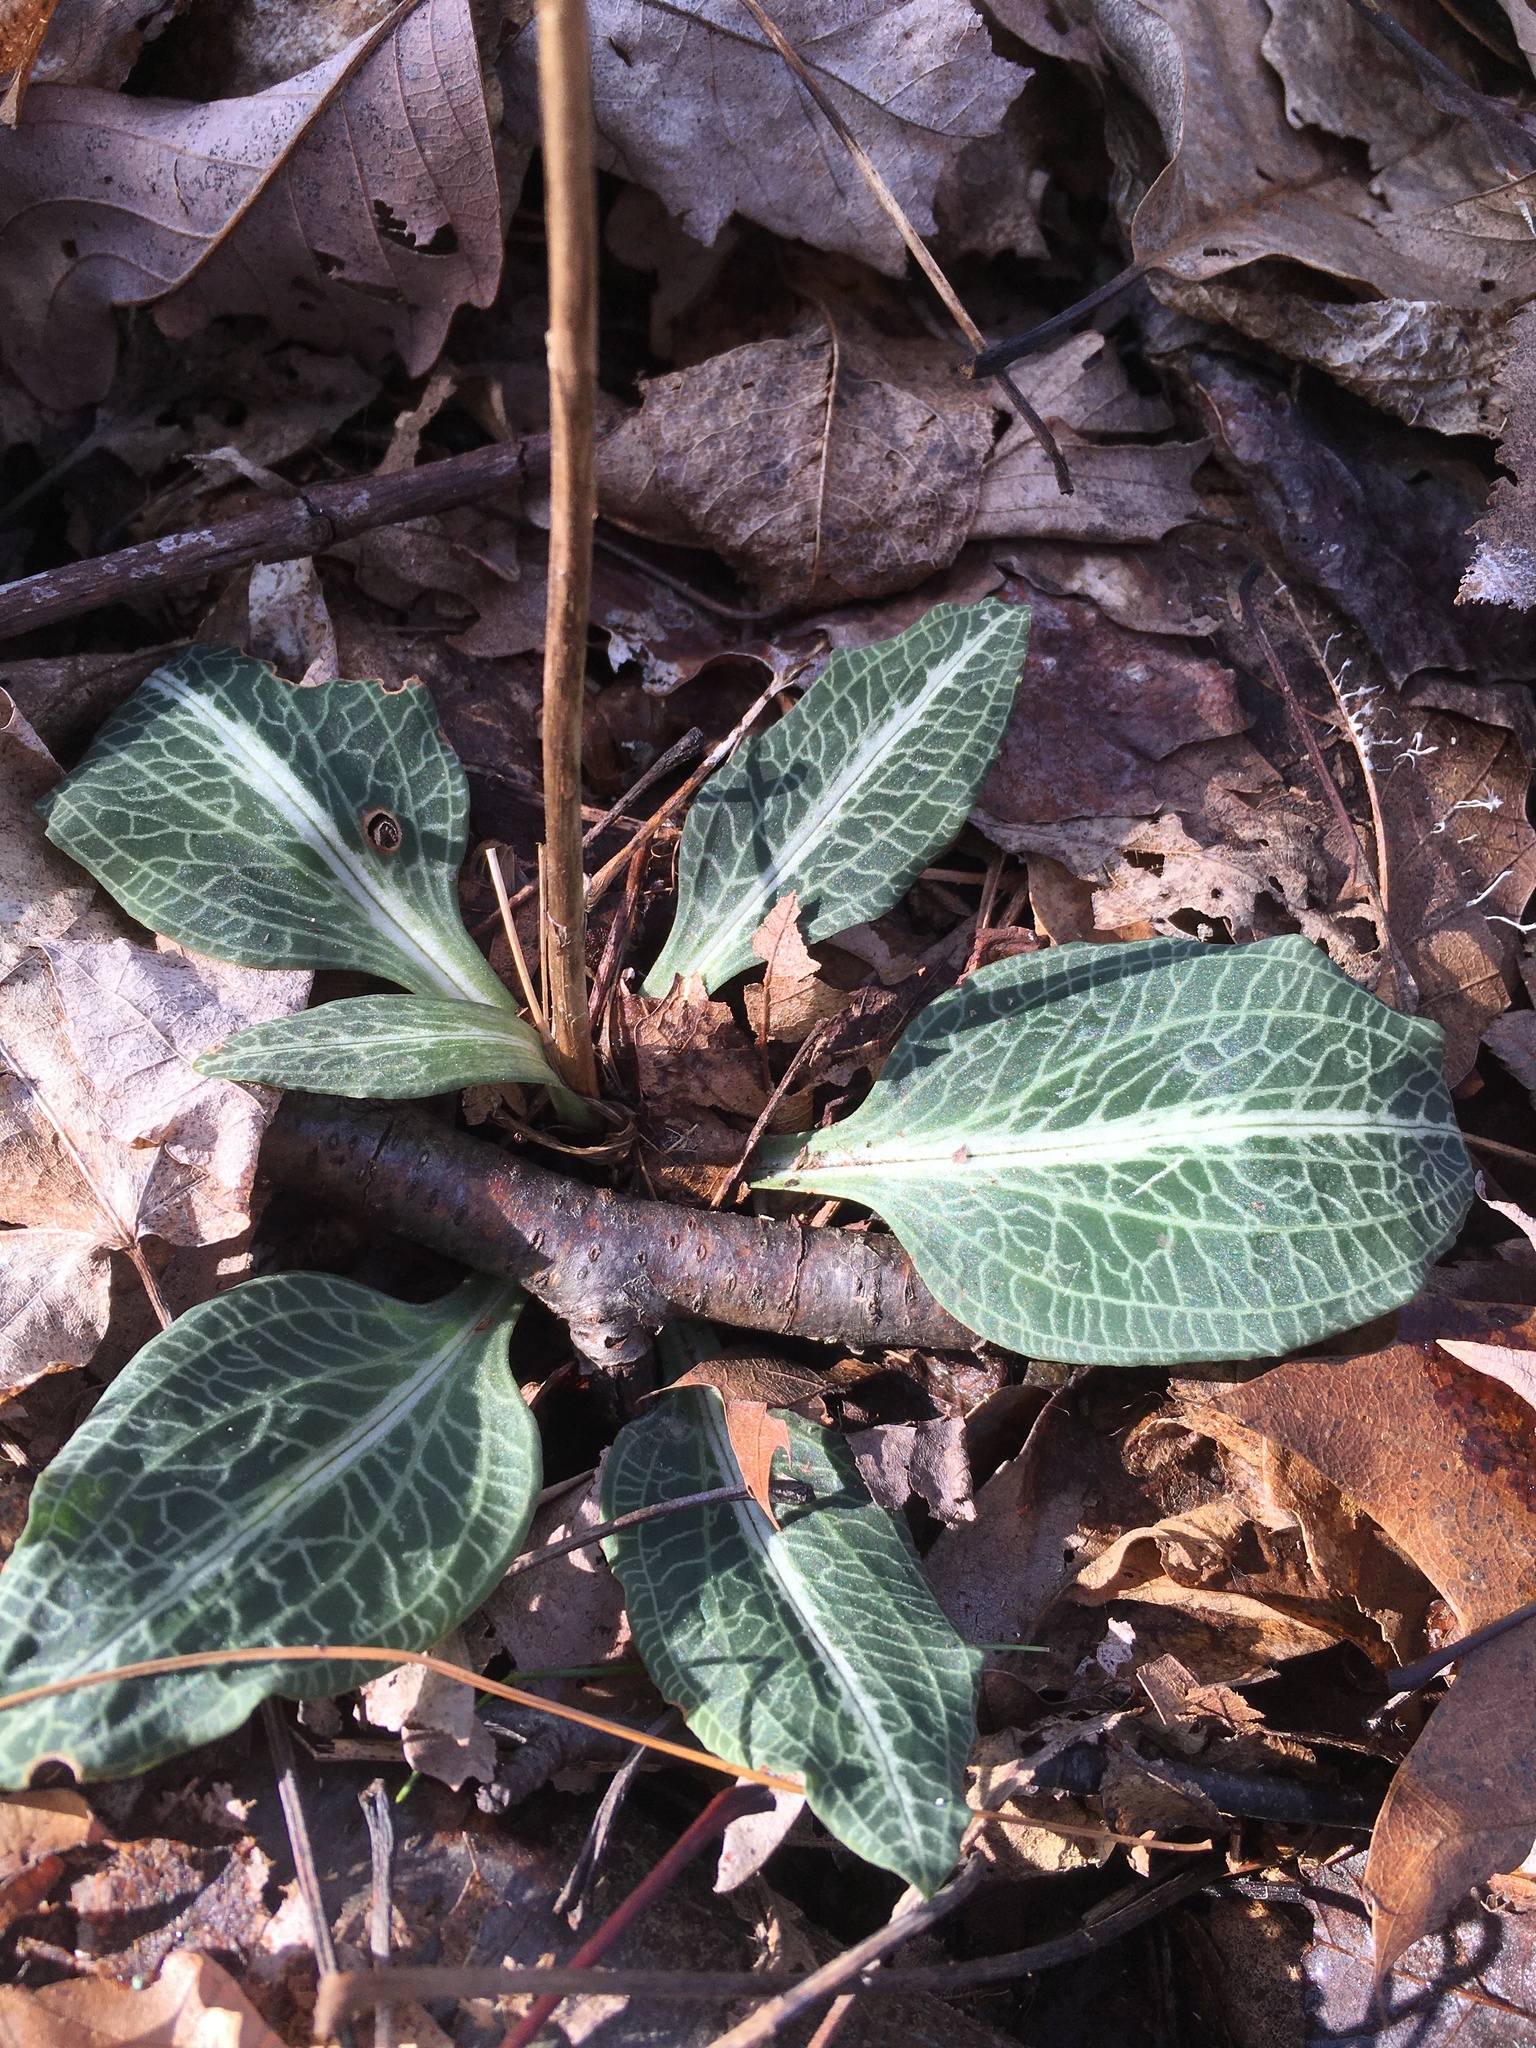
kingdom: Plantae
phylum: Tracheophyta
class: Liliopsida
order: Asparagales
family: Orchidaceae
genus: Goodyera
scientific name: Goodyera pubescens
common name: Downy rattlesnake-plantain
